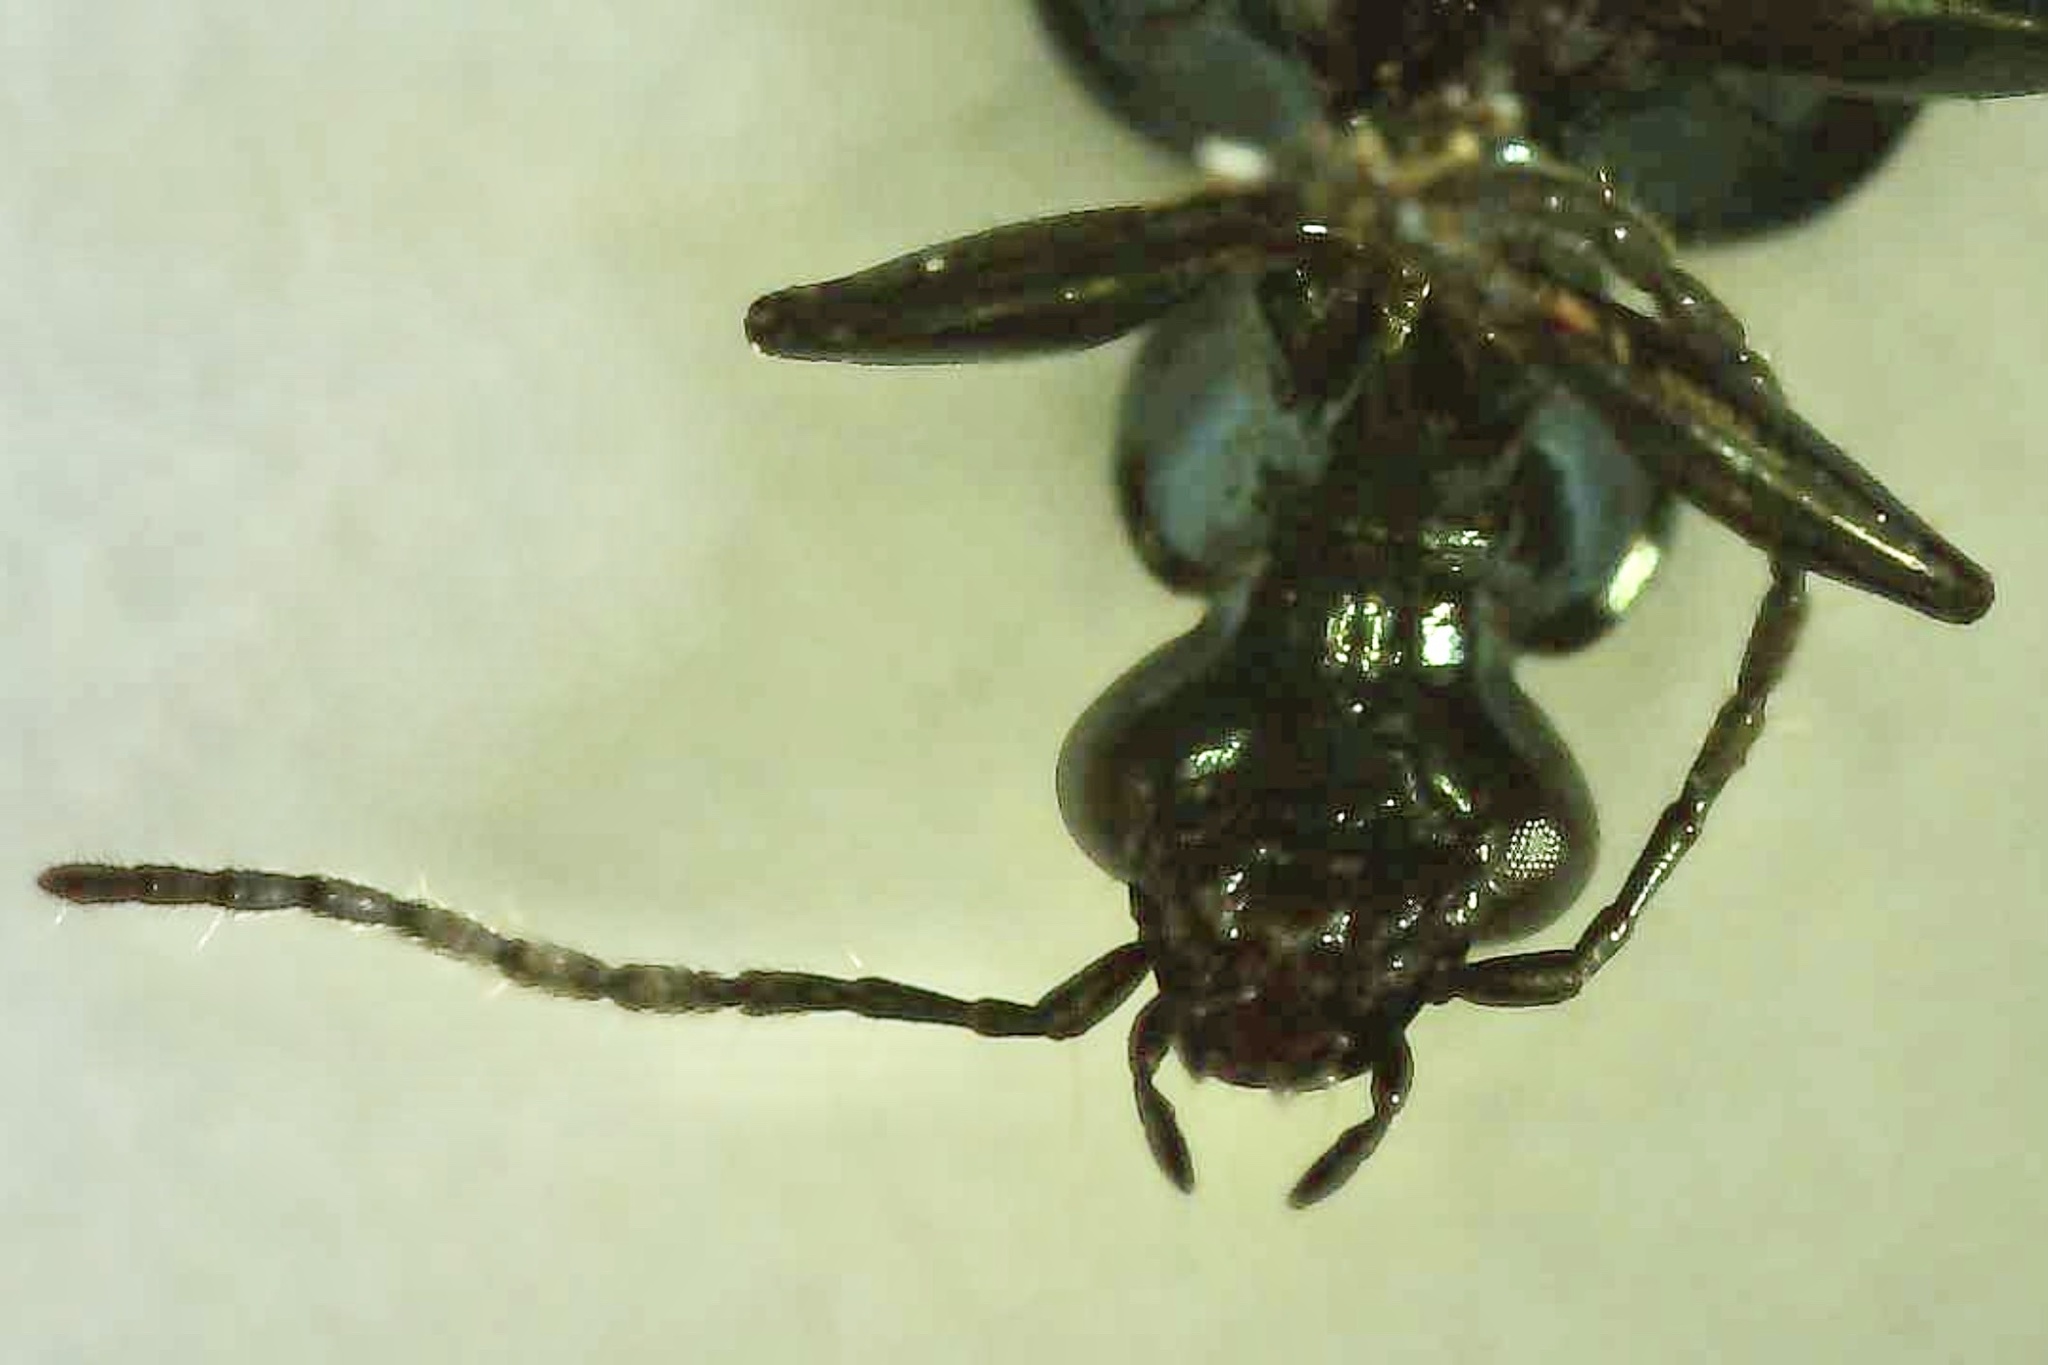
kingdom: Animalia
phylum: Arthropoda
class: Insecta
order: Coleoptera
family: Carabidae
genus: Lebia
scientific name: Lebia viridis
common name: Flower lebia beetle
